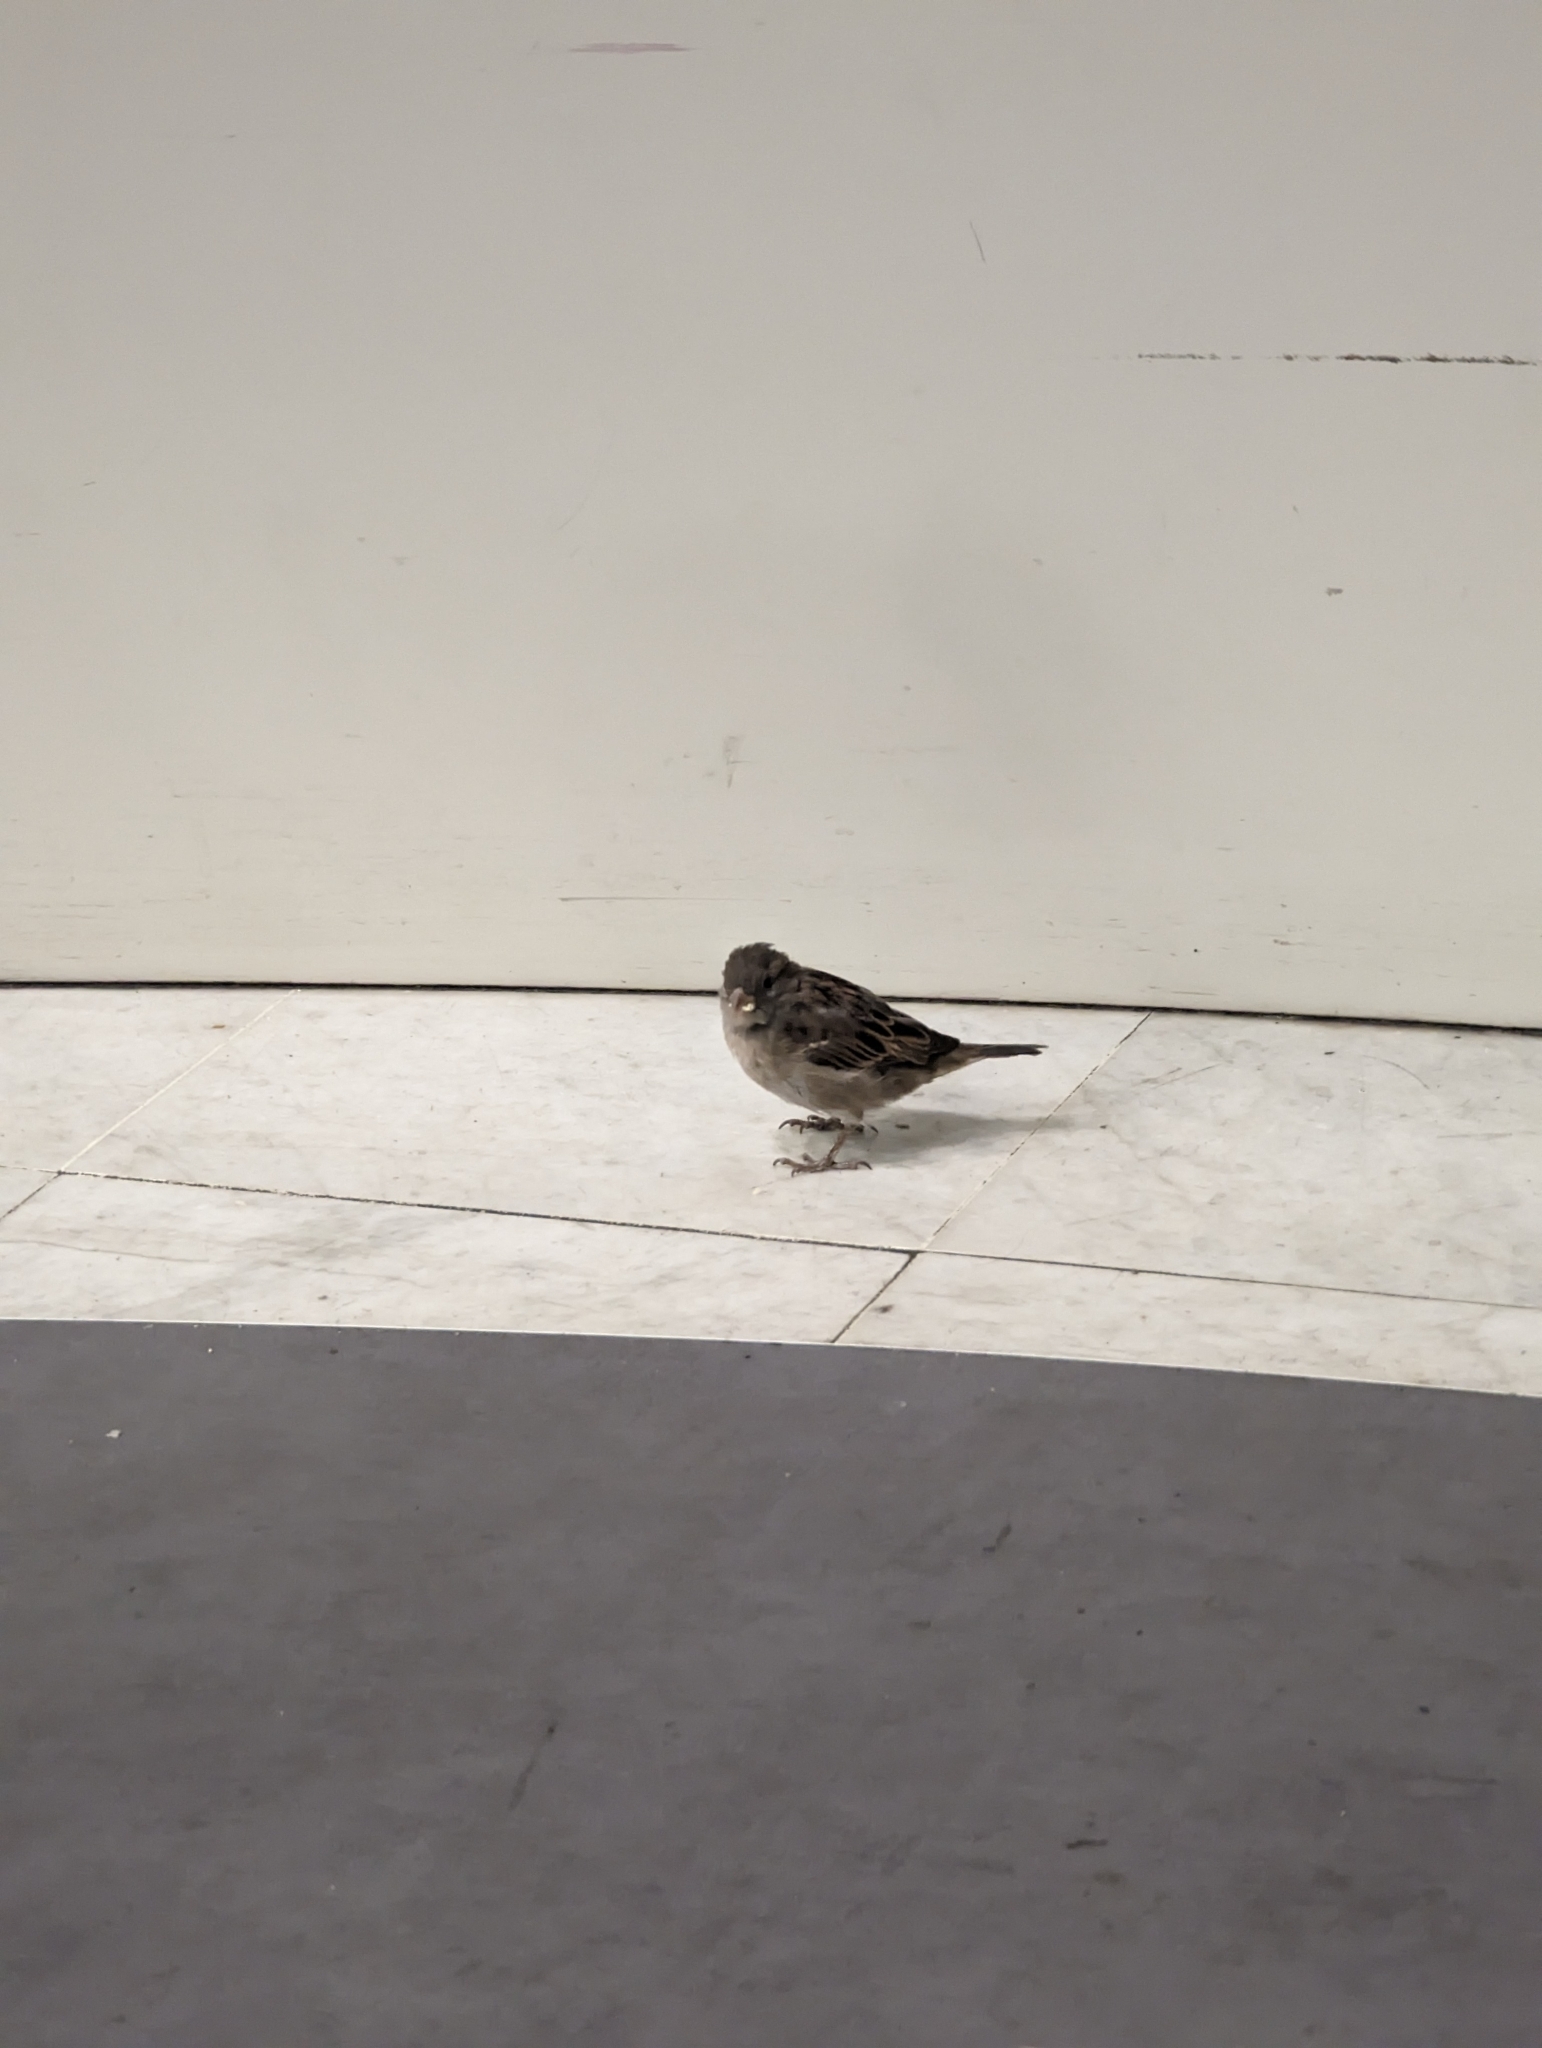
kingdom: Animalia
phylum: Chordata
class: Aves
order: Passeriformes
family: Passeridae
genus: Passer
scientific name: Passer domesticus
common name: House sparrow
